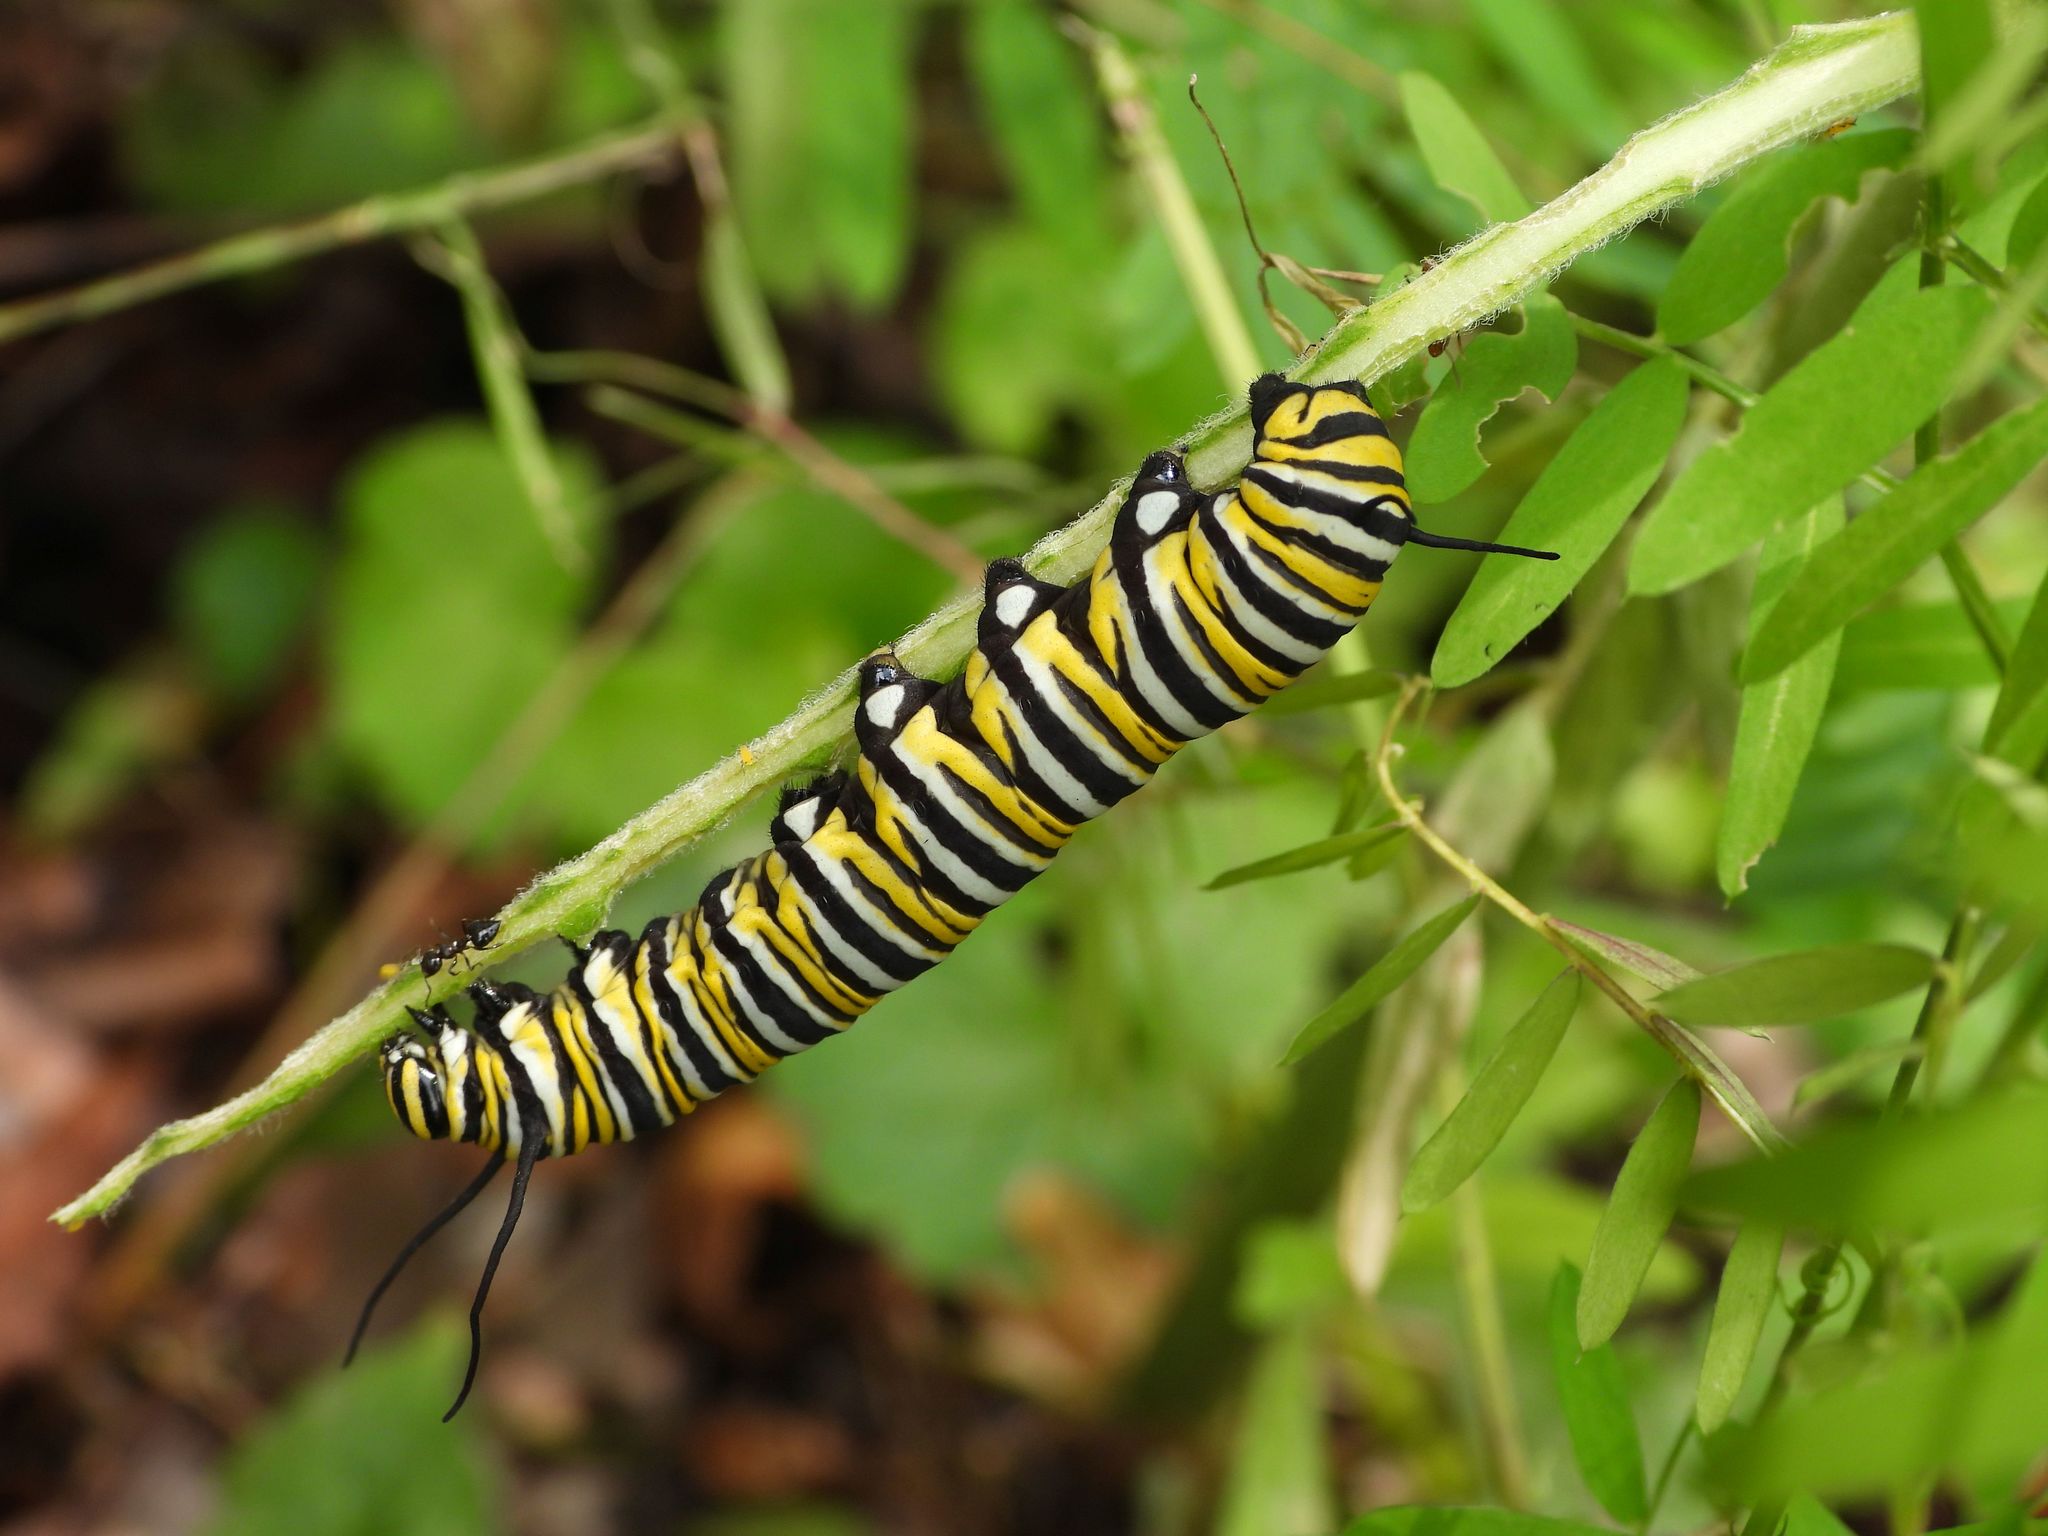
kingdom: Animalia
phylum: Arthropoda
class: Insecta
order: Lepidoptera
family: Nymphalidae
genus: Danaus
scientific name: Danaus plexippus
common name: Monarch
